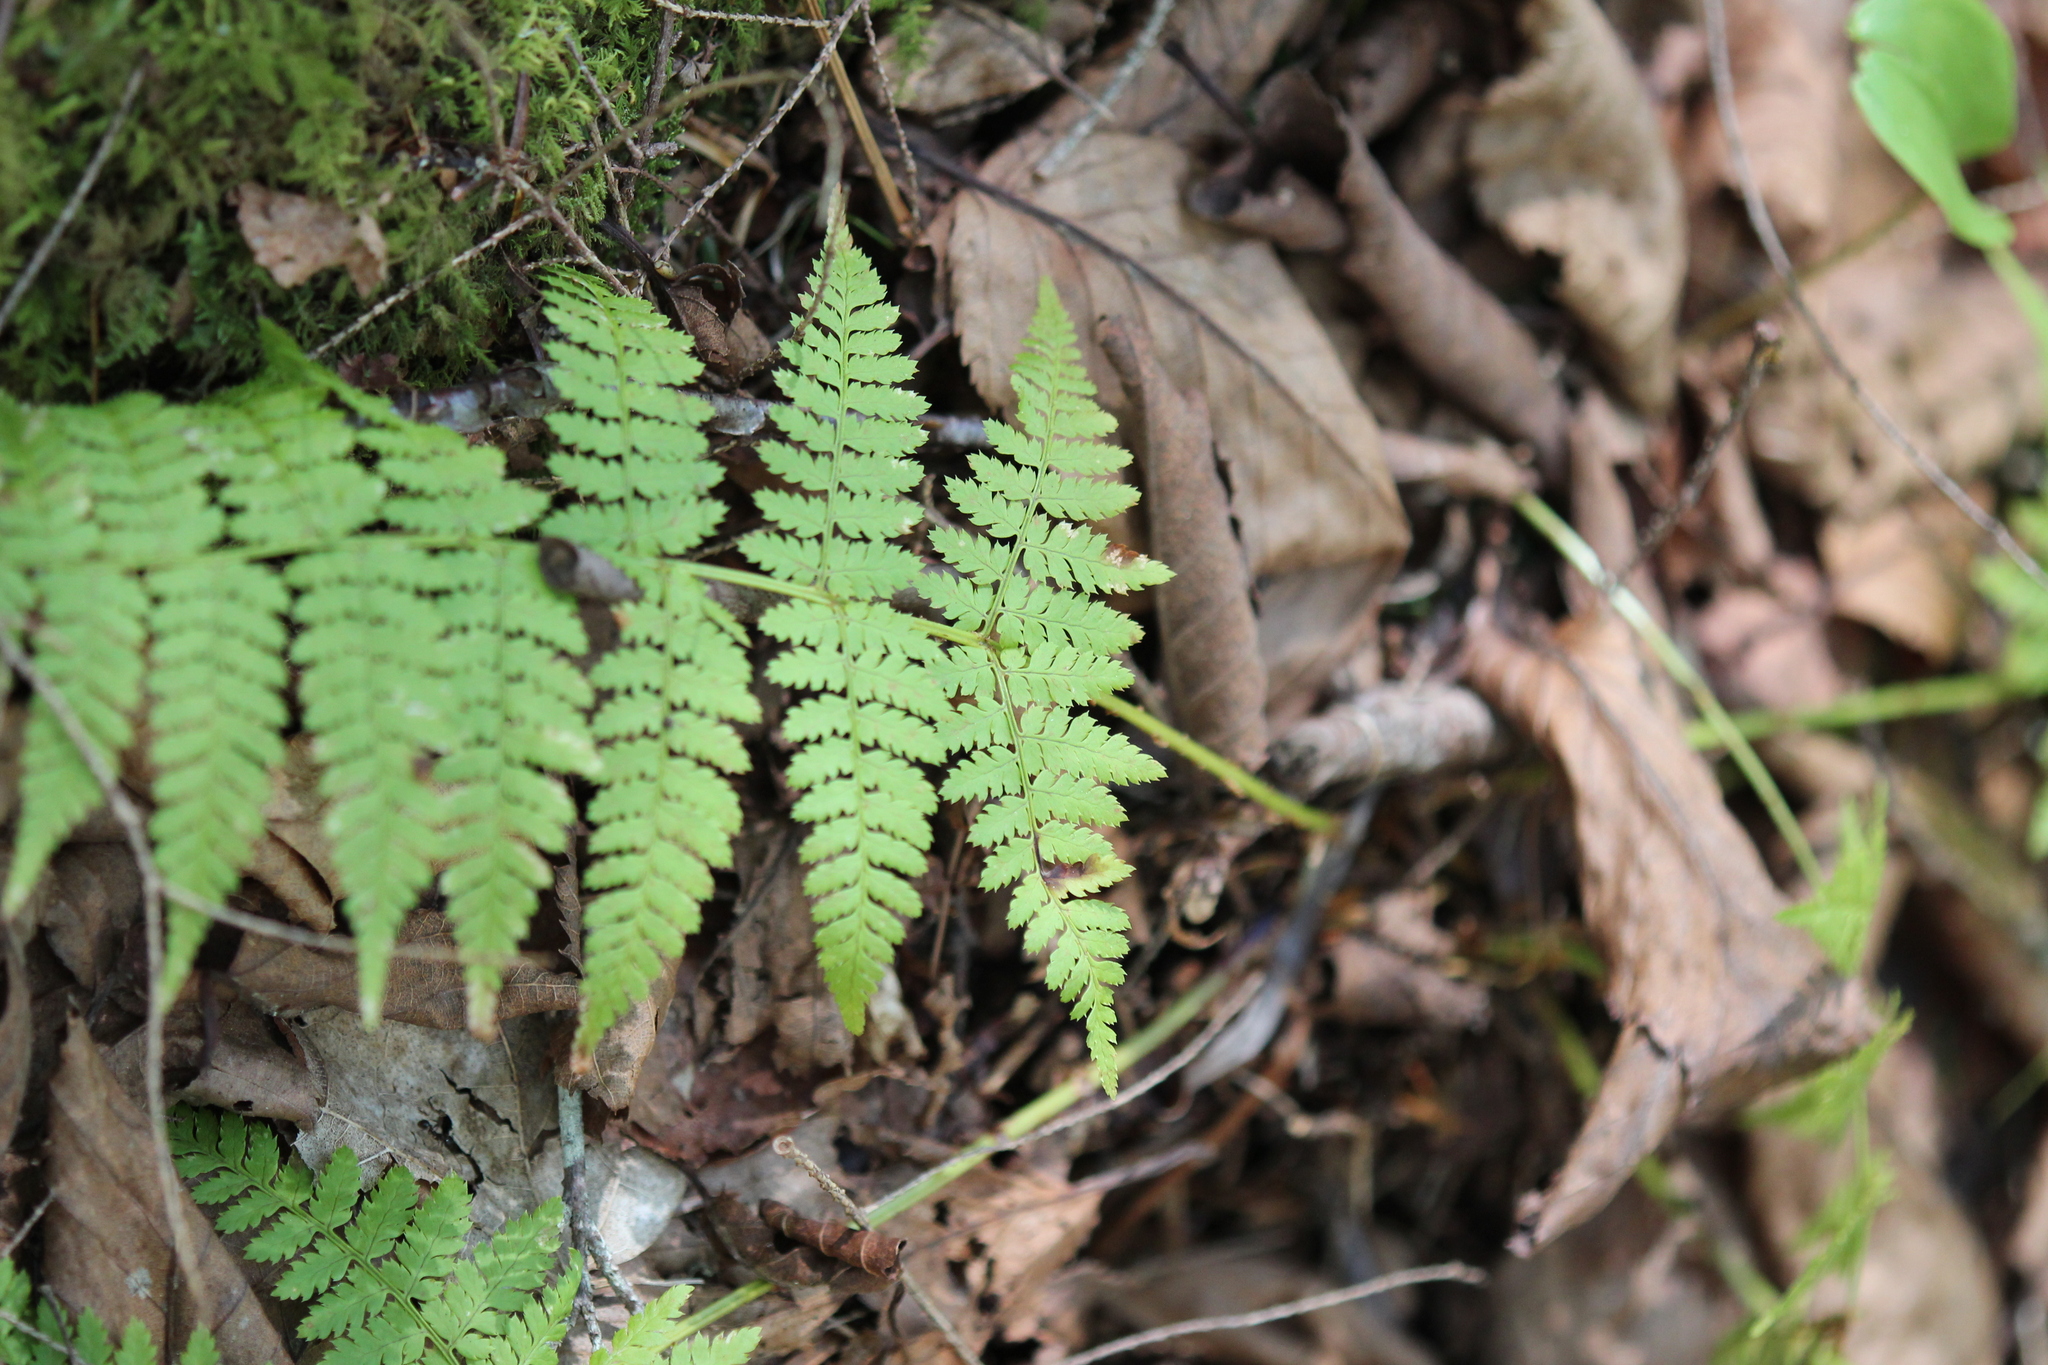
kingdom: Plantae
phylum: Tracheophyta
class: Polypodiopsida
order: Polypodiales
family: Dryopteridaceae
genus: Dryopteris
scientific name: Dryopteris intermedia
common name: Evergreen wood fern
